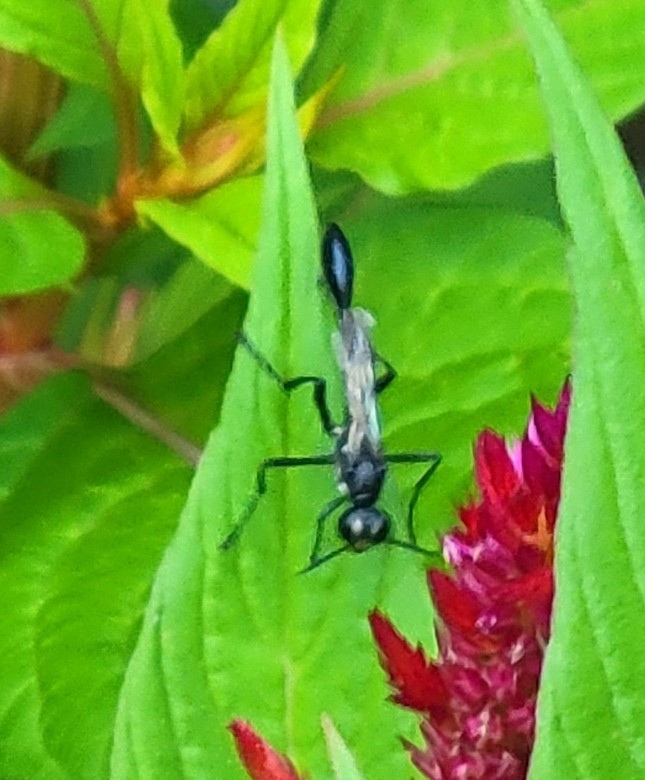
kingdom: Animalia
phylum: Arthropoda
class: Insecta
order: Hymenoptera
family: Sphecidae
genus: Eremnophila
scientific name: Eremnophila aureonotata
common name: Gold-marked thread-waisted wasp
